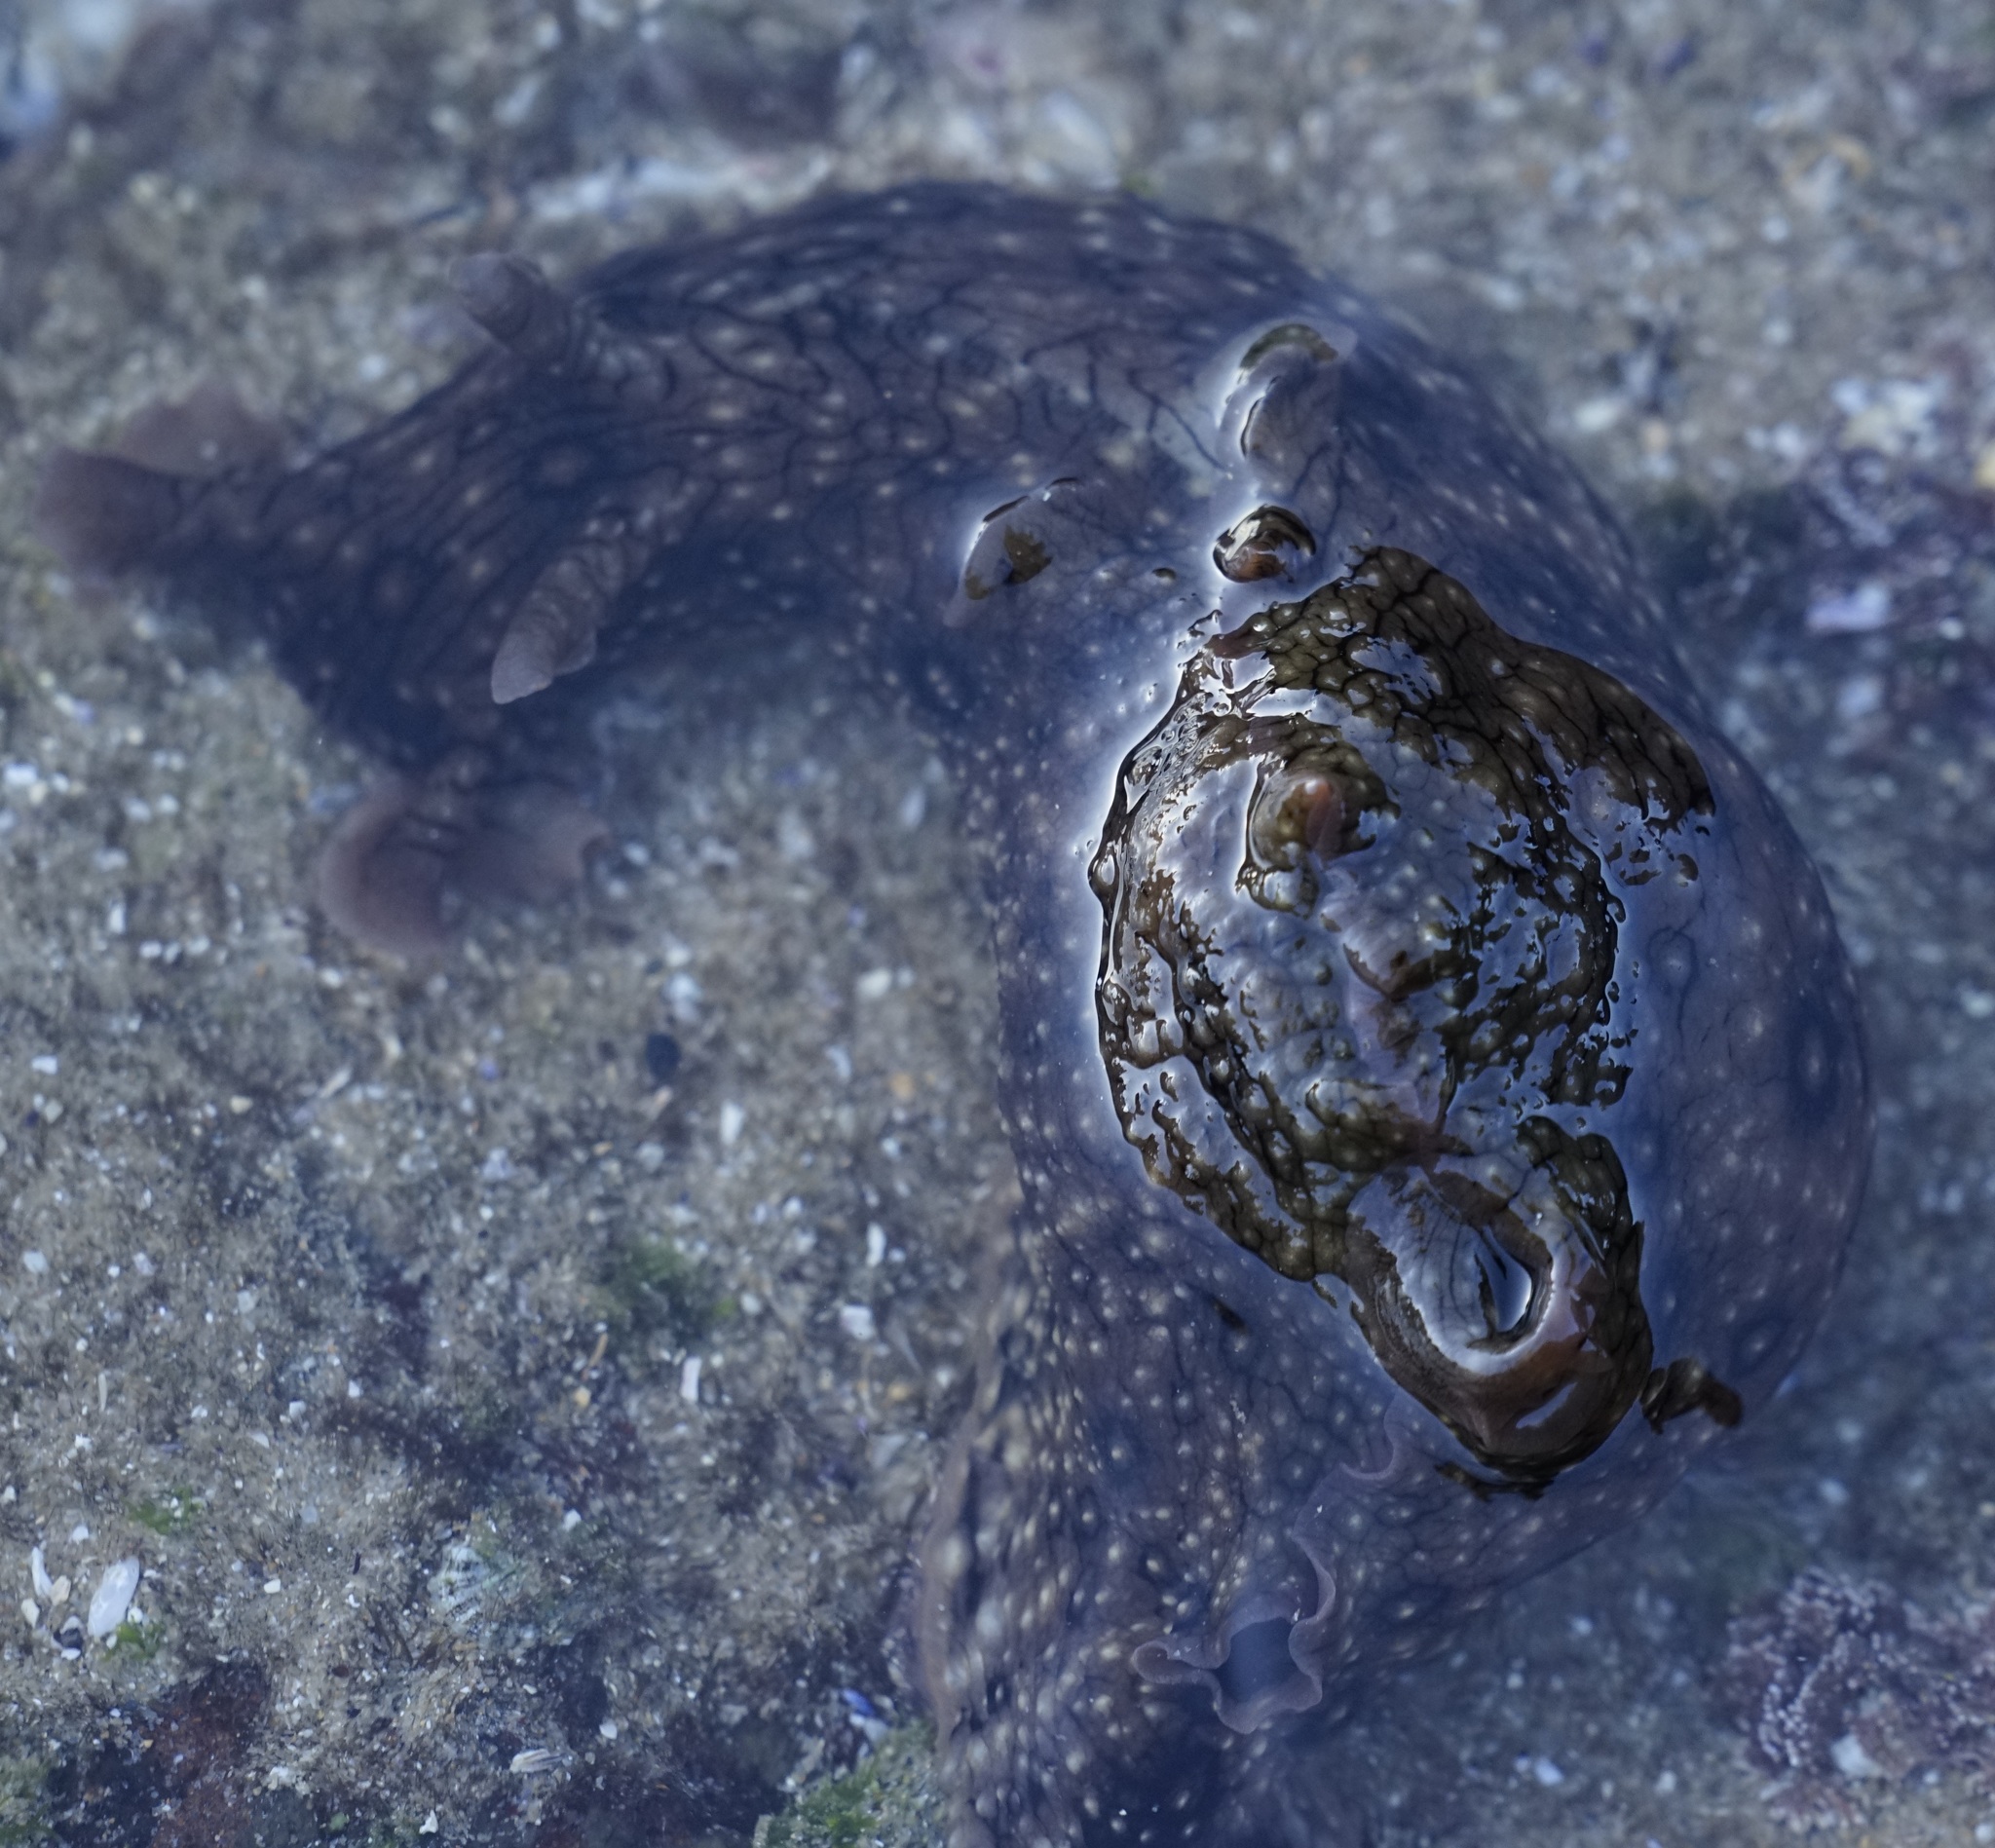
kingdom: Animalia
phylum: Mollusca
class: Gastropoda
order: Aplysiida
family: Aplysiidae
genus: Aplysia
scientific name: Aplysia argus
